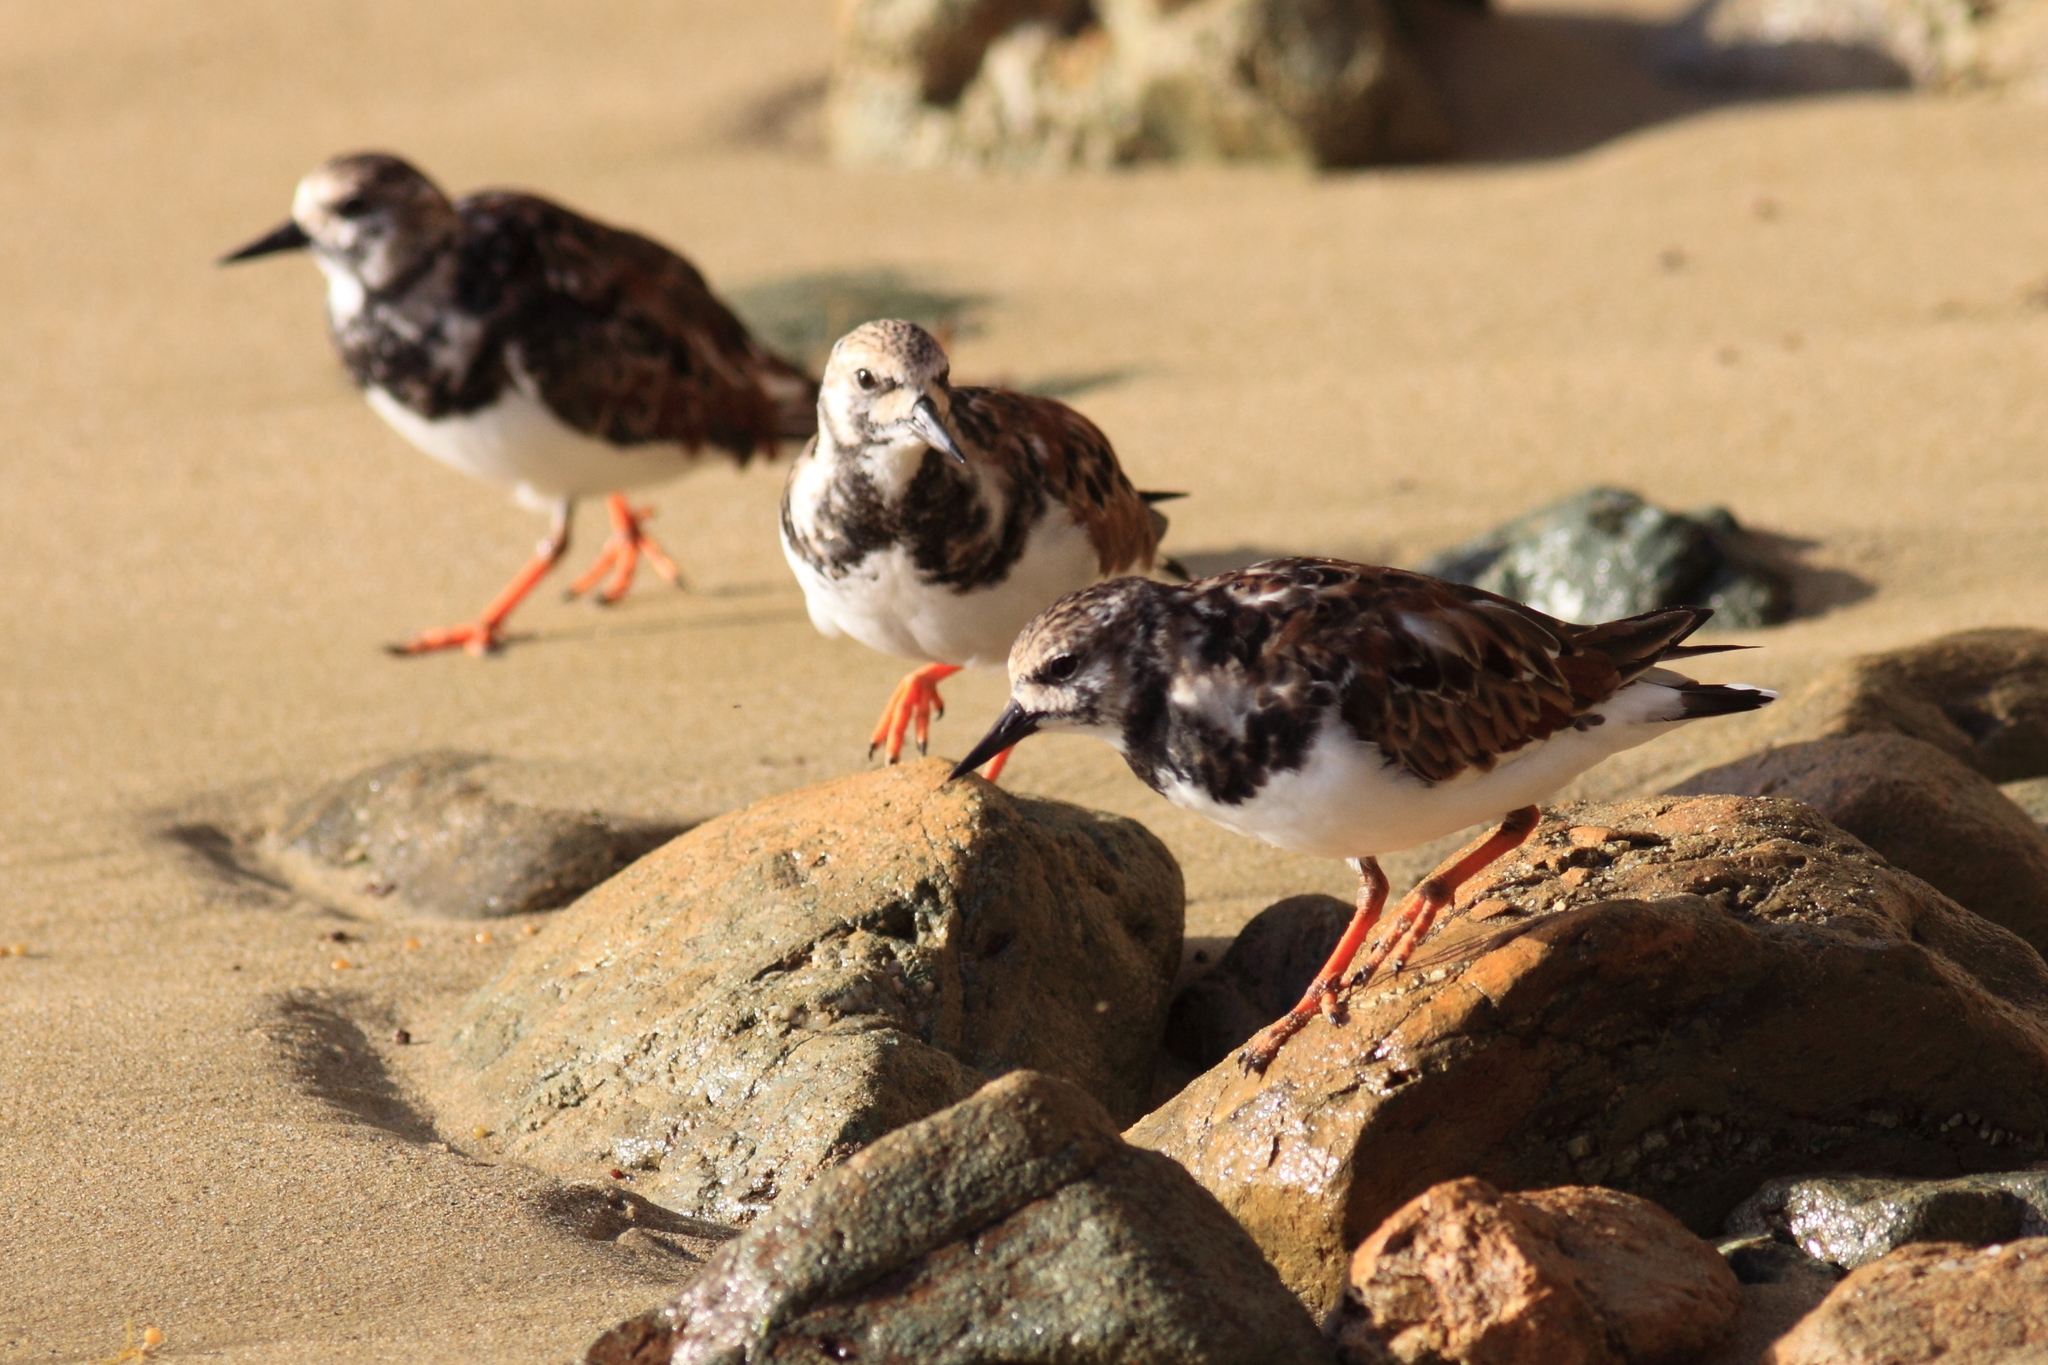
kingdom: Animalia
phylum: Chordata
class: Aves
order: Charadriiformes
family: Scolopacidae
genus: Arenaria
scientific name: Arenaria interpres
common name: Ruddy turnstone
